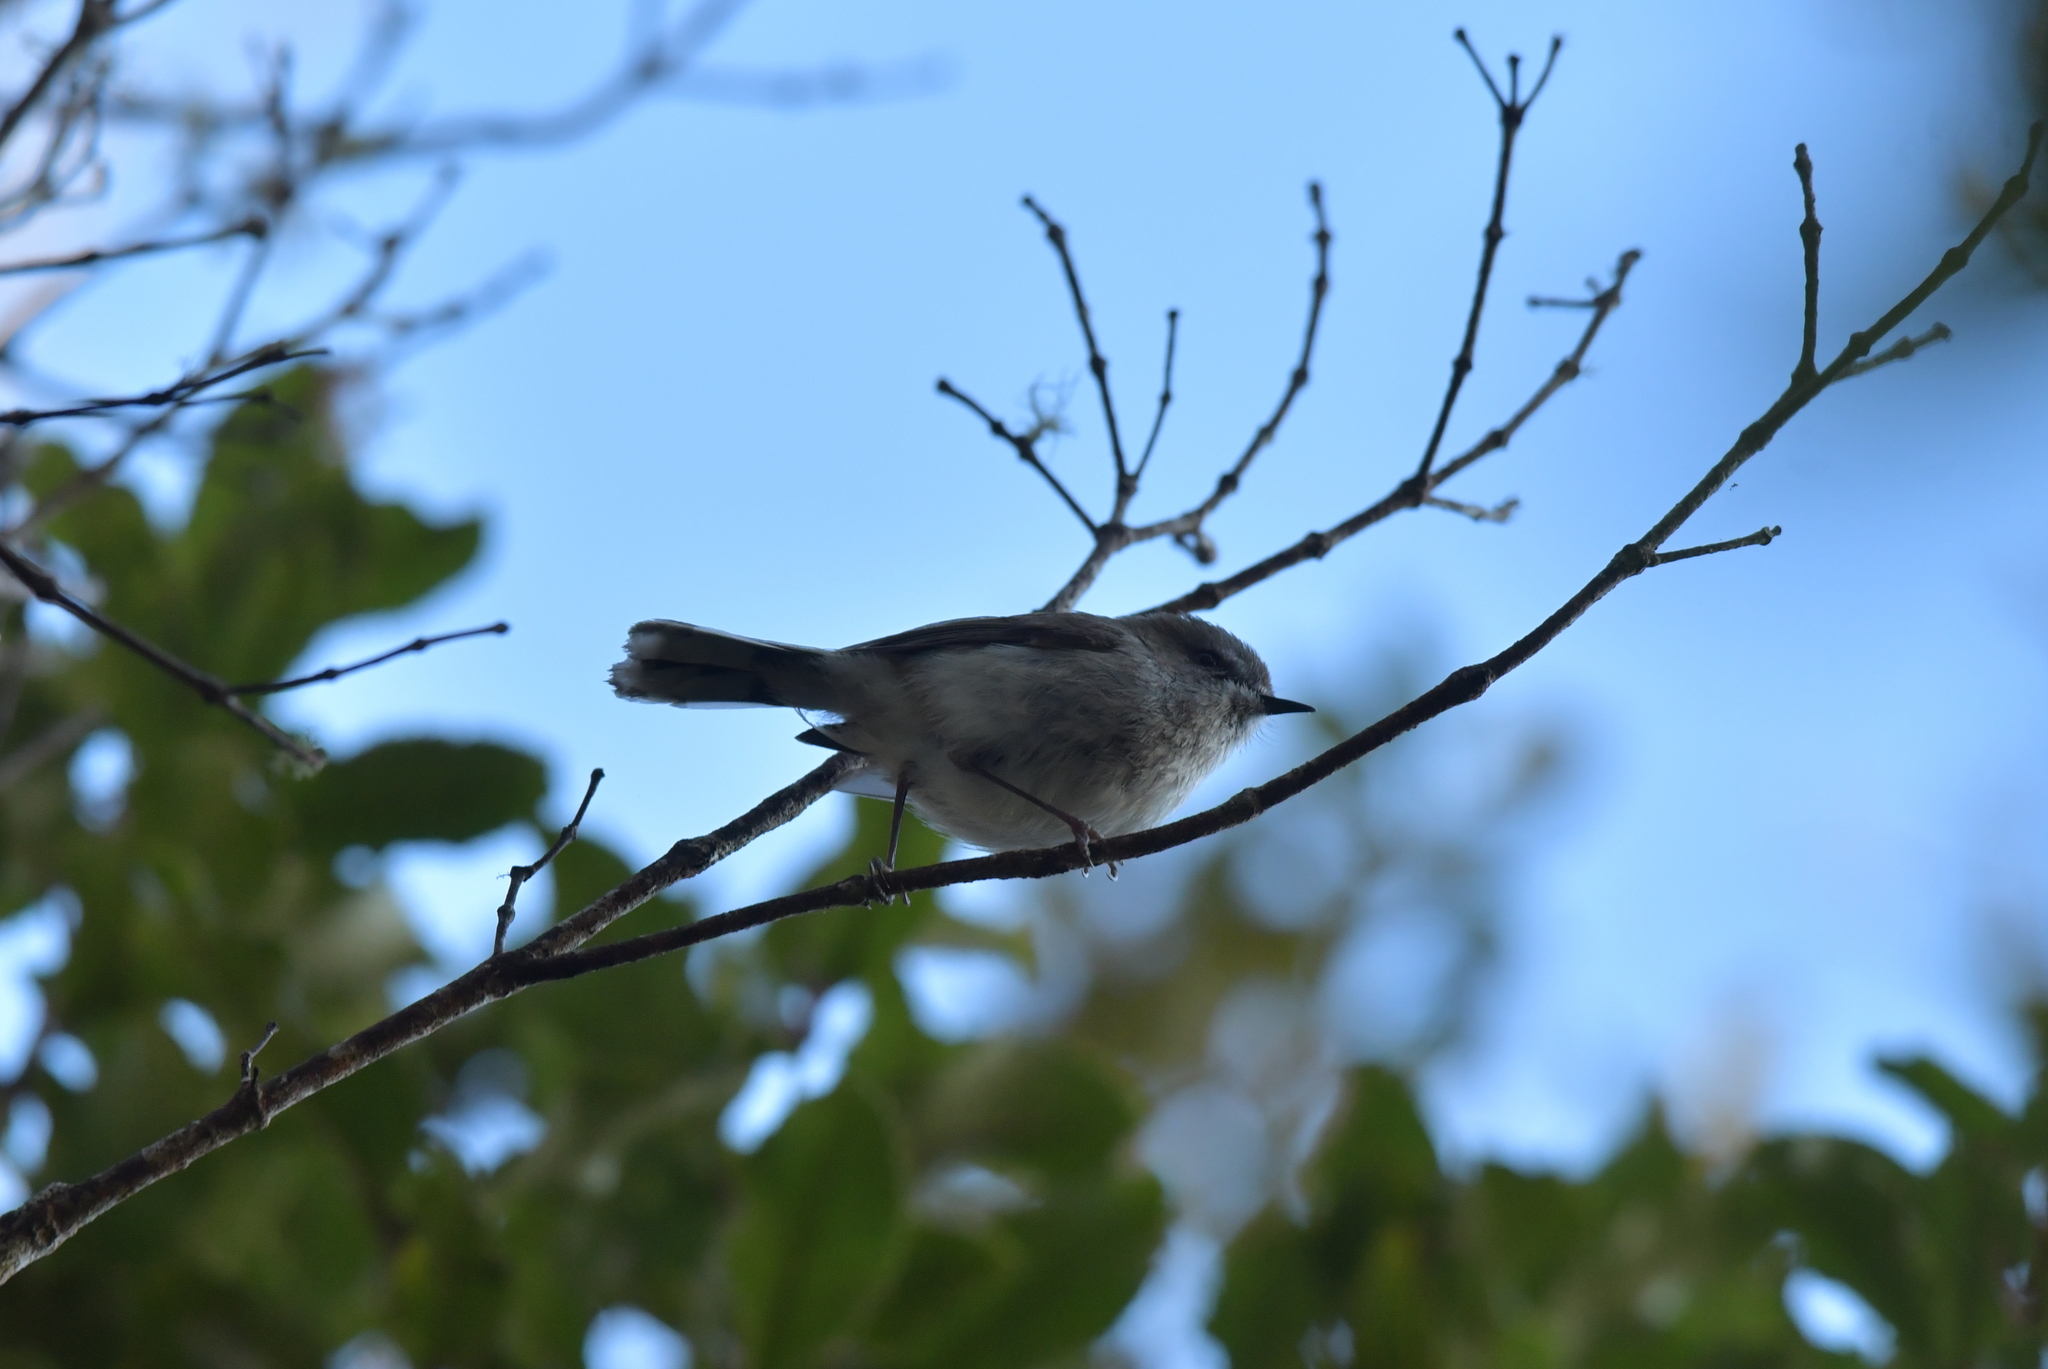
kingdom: Animalia
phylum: Chordata
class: Aves
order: Passeriformes
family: Acanthizidae
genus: Gerygone
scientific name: Gerygone igata
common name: Grey gerygone
